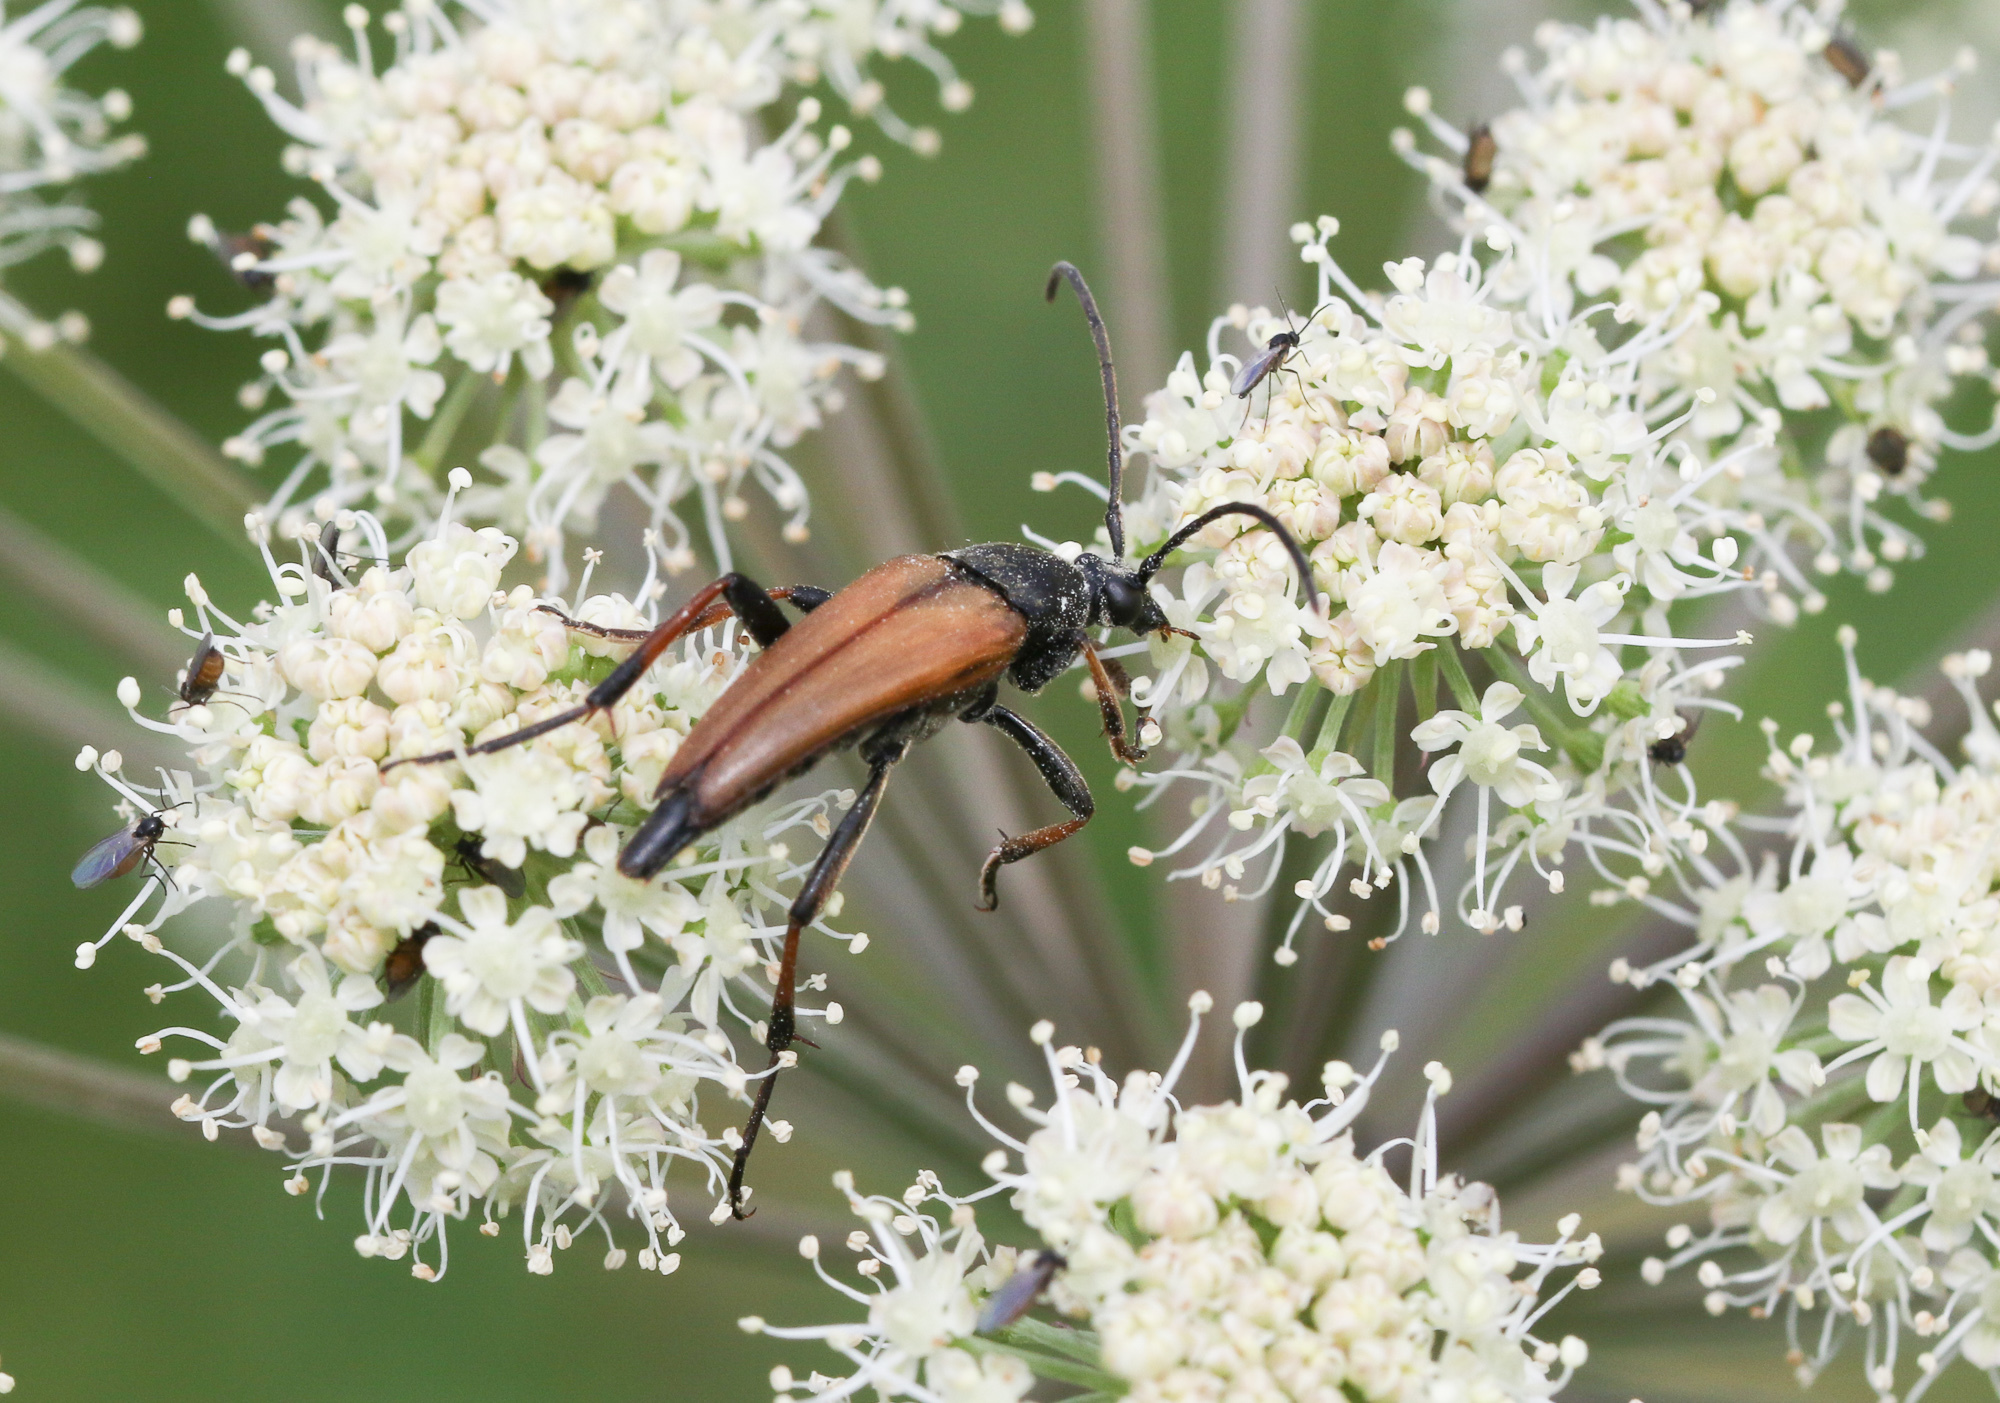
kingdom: Animalia
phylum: Arthropoda
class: Insecta
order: Coleoptera
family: Cerambycidae
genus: Etorofus
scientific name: Etorofus pubescens
